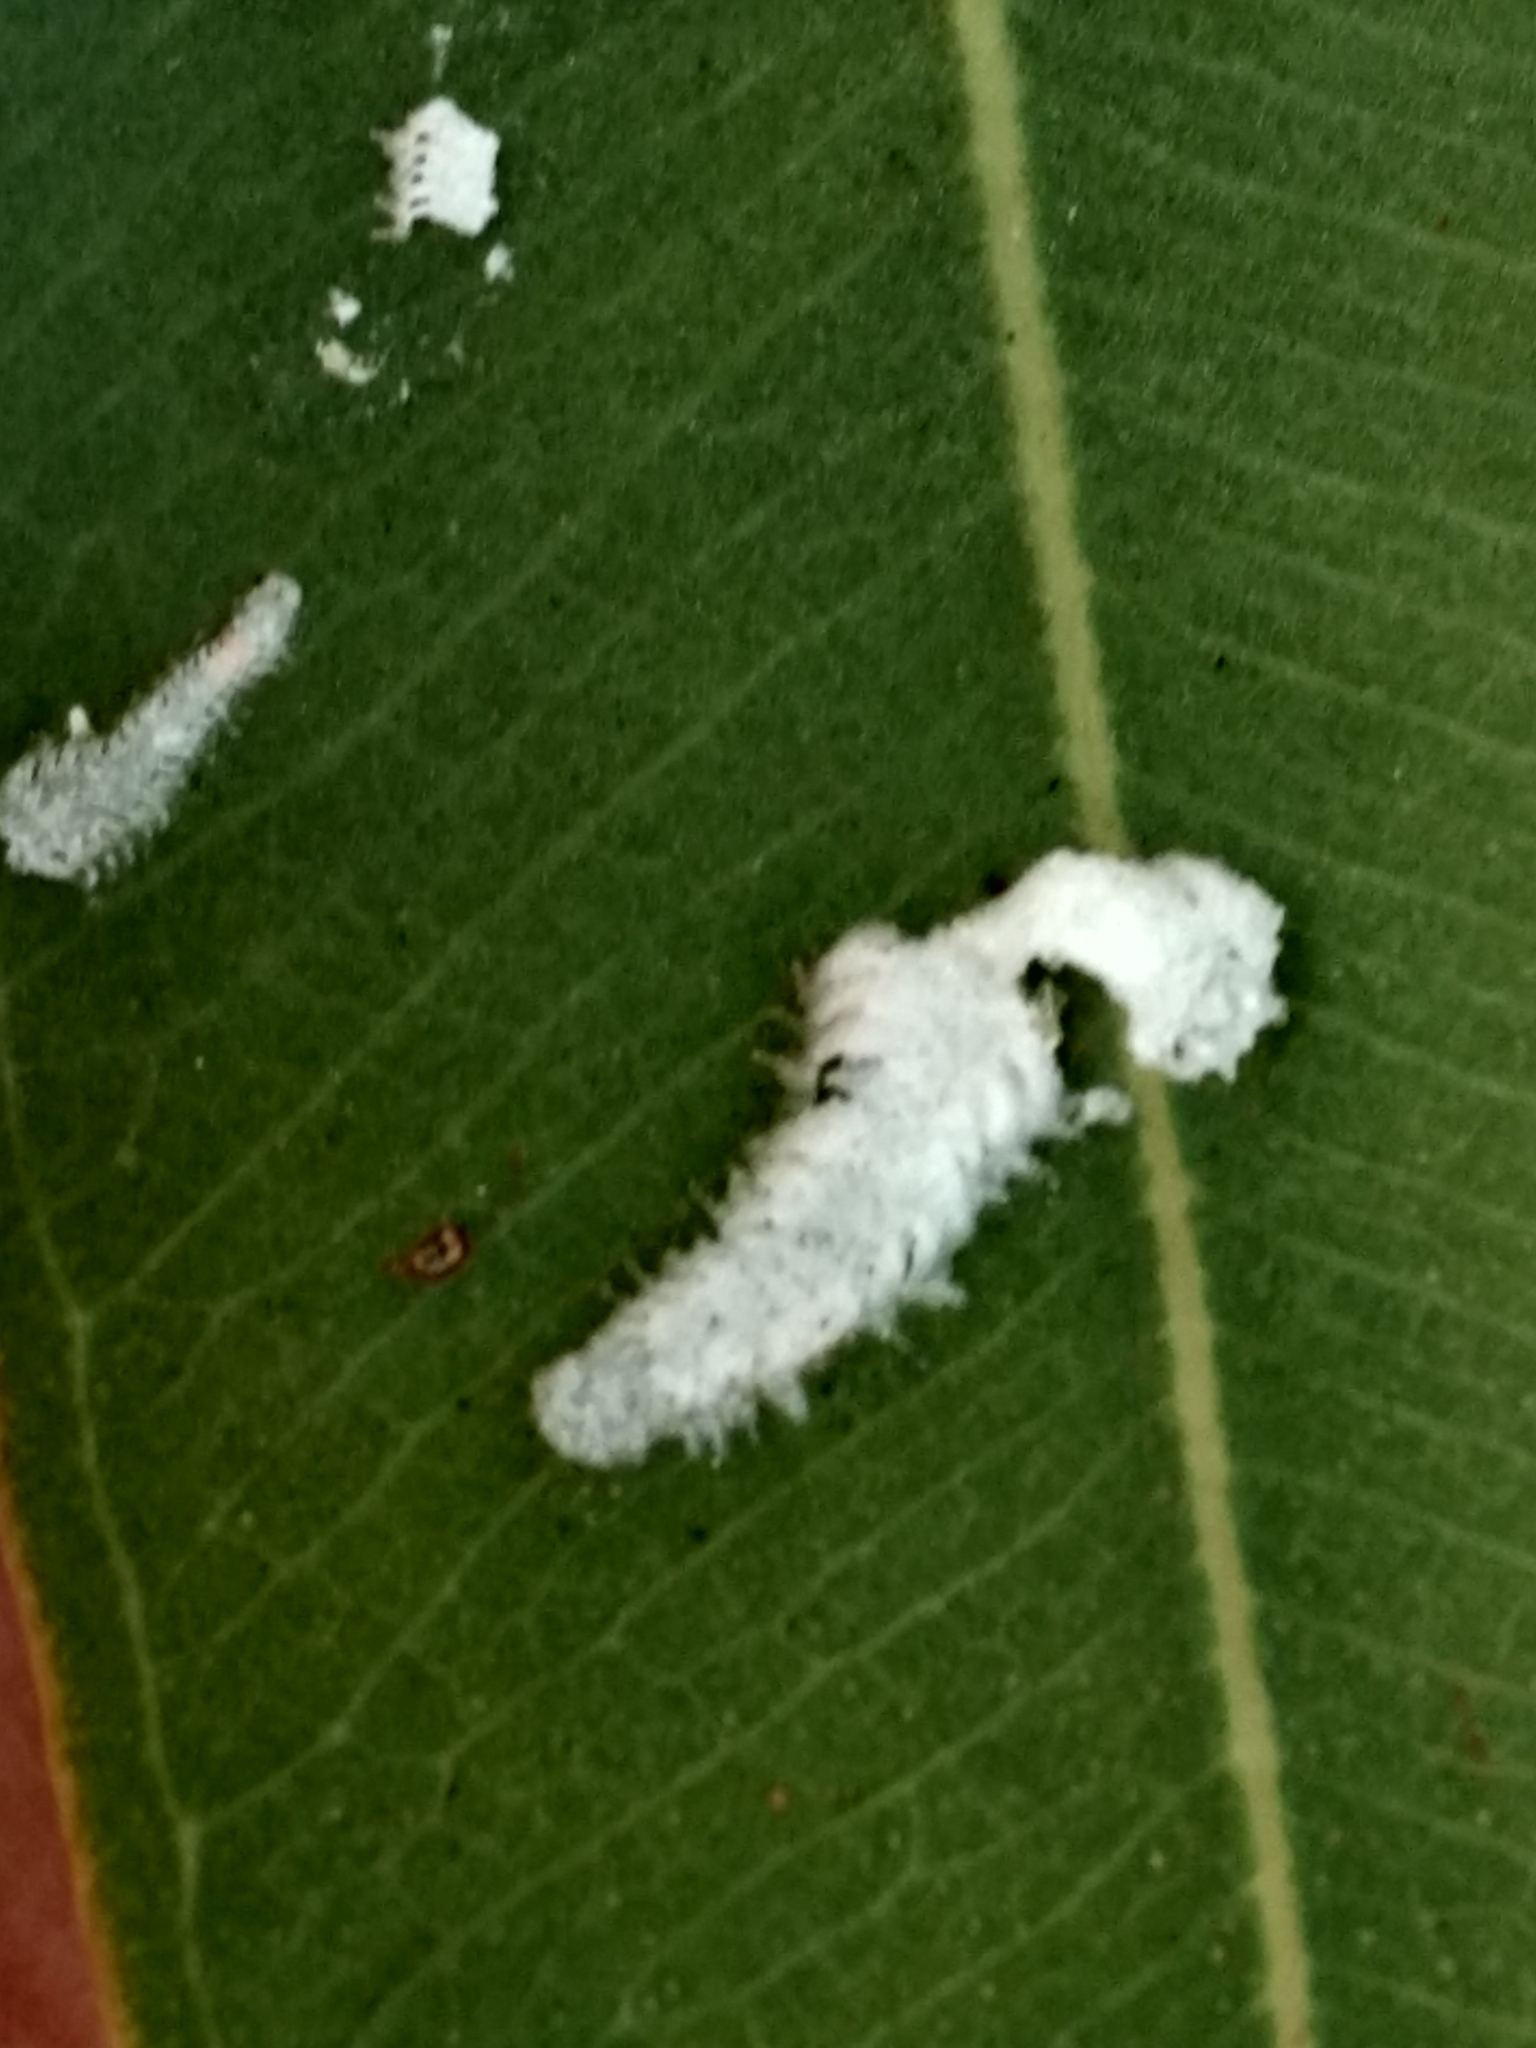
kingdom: Animalia
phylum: Arthropoda
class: Insecta
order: Hemiptera
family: Aphalaridae
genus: Eucalyptolyma
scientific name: Eucalyptolyma maideni
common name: Spotted gum lerp psyllid
